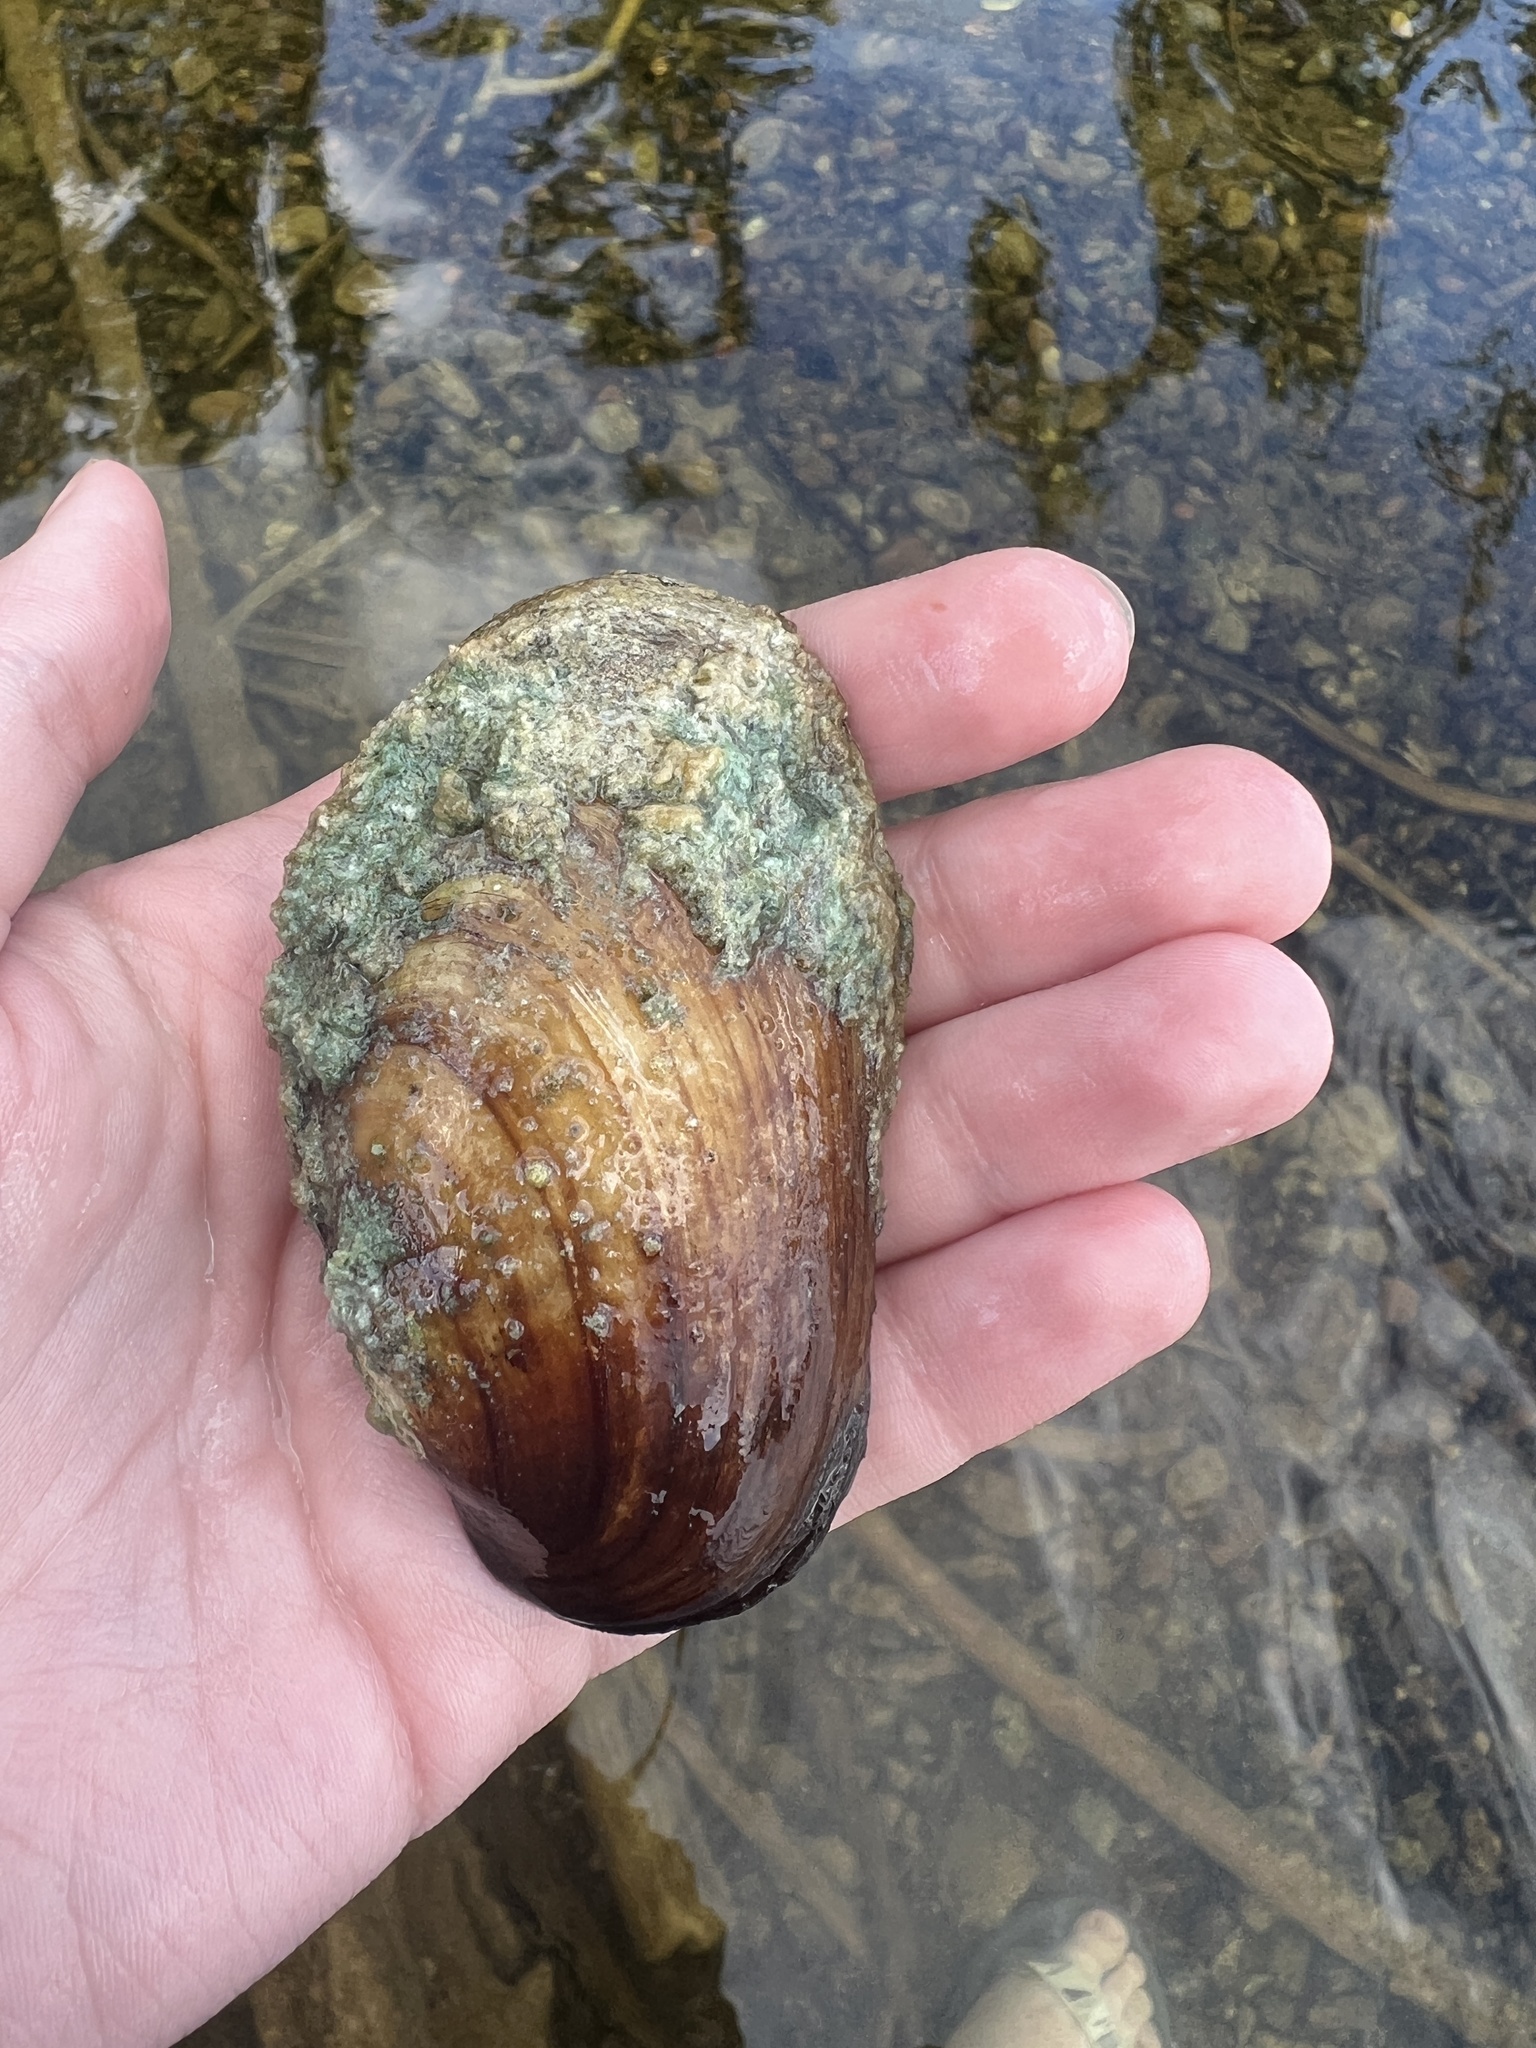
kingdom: Animalia
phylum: Mollusca
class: Bivalvia
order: Unionida
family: Unionidae
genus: Lampsilis
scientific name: Lampsilis siliquoidea
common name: Fatmucket
